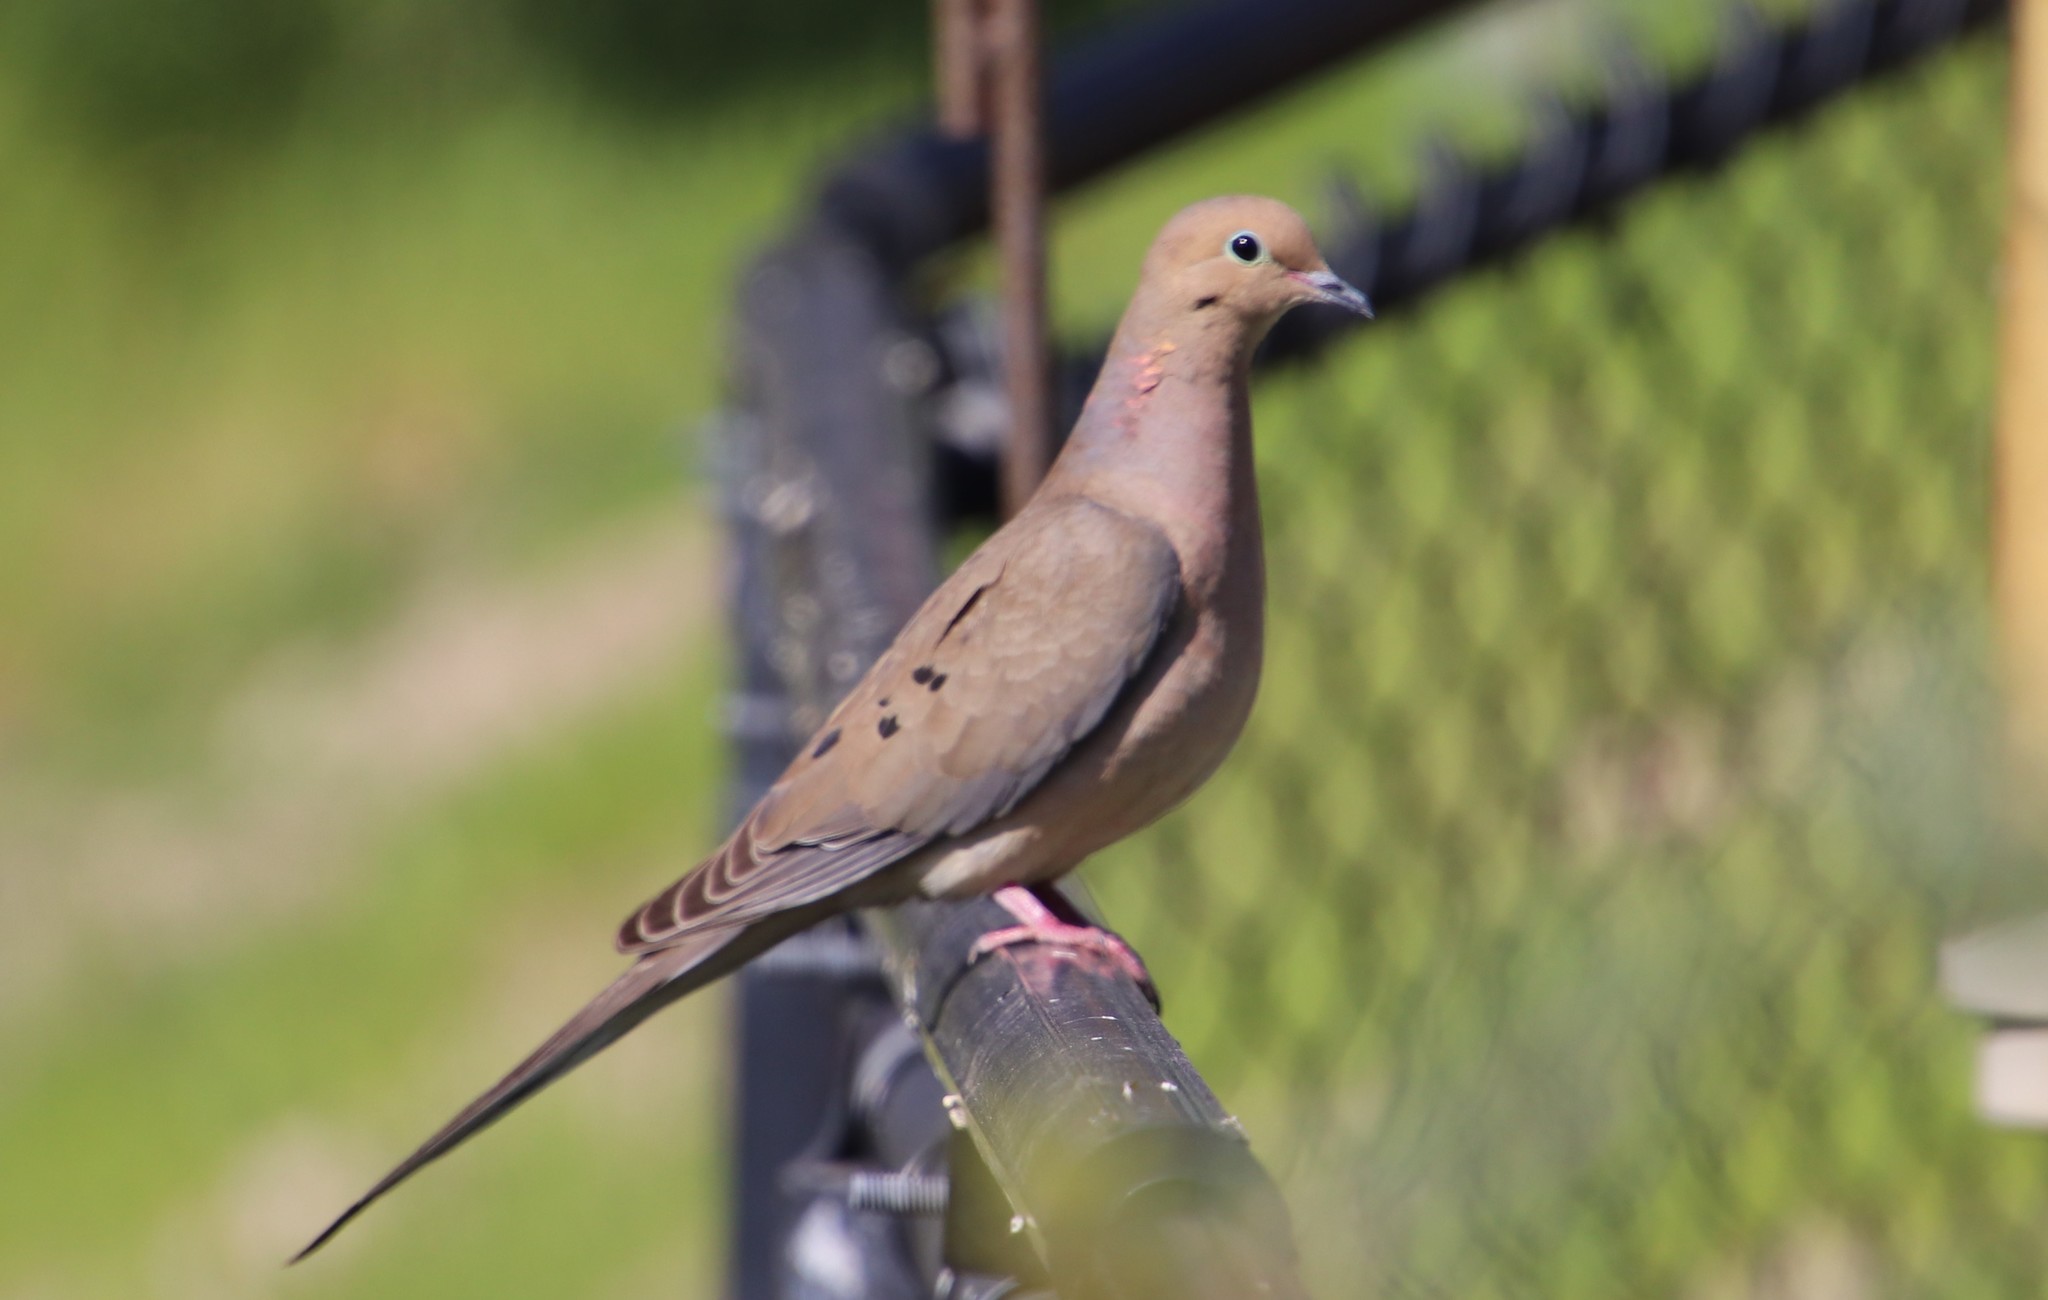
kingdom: Animalia
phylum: Chordata
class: Aves
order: Columbiformes
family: Columbidae
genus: Zenaida
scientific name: Zenaida macroura
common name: Mourning dove
